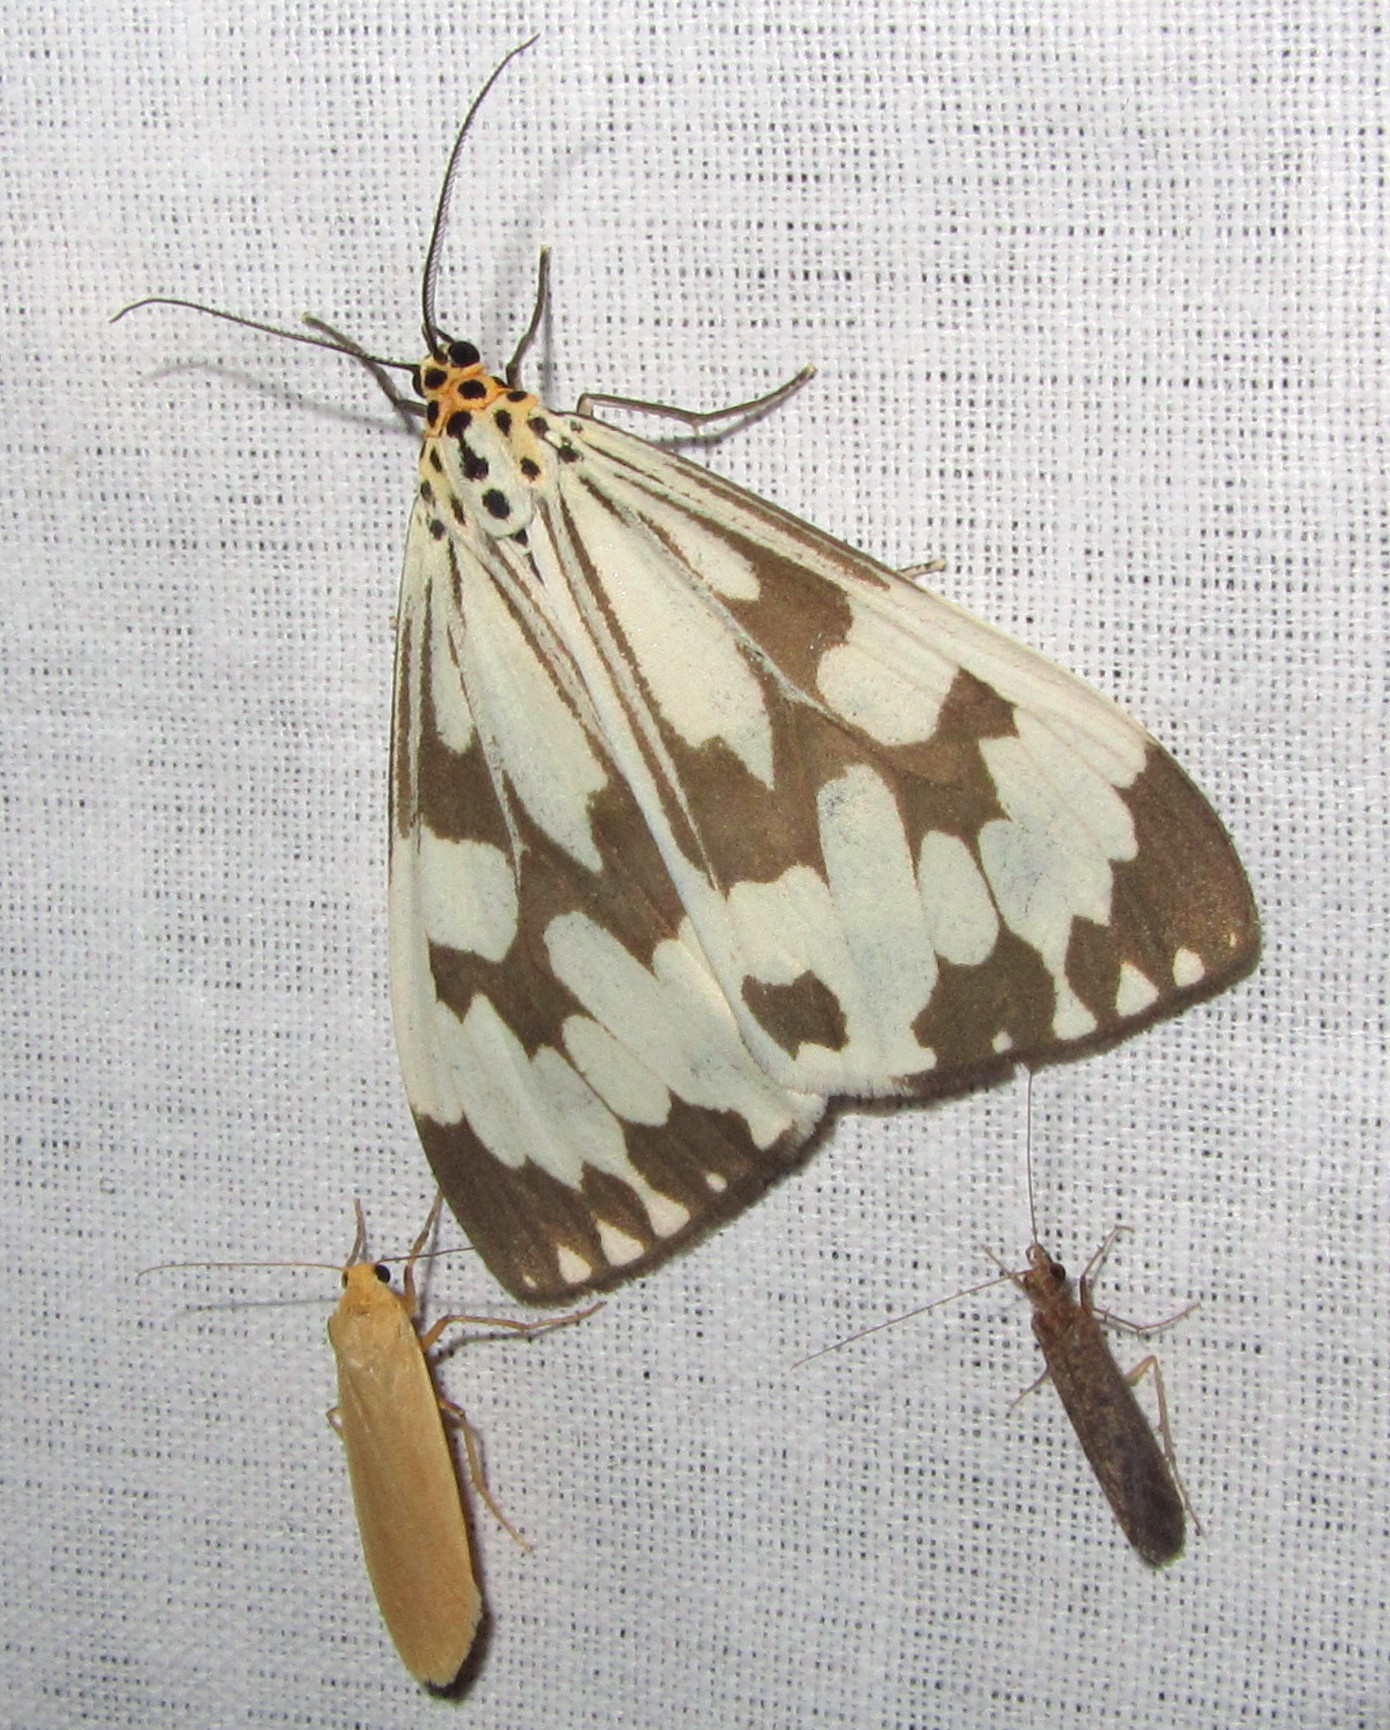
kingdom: Animalia
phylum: Arthropoda
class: Insecta
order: Lepidoptera
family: Erebidae
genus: Nyctemera
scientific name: Nyctemera adversata
